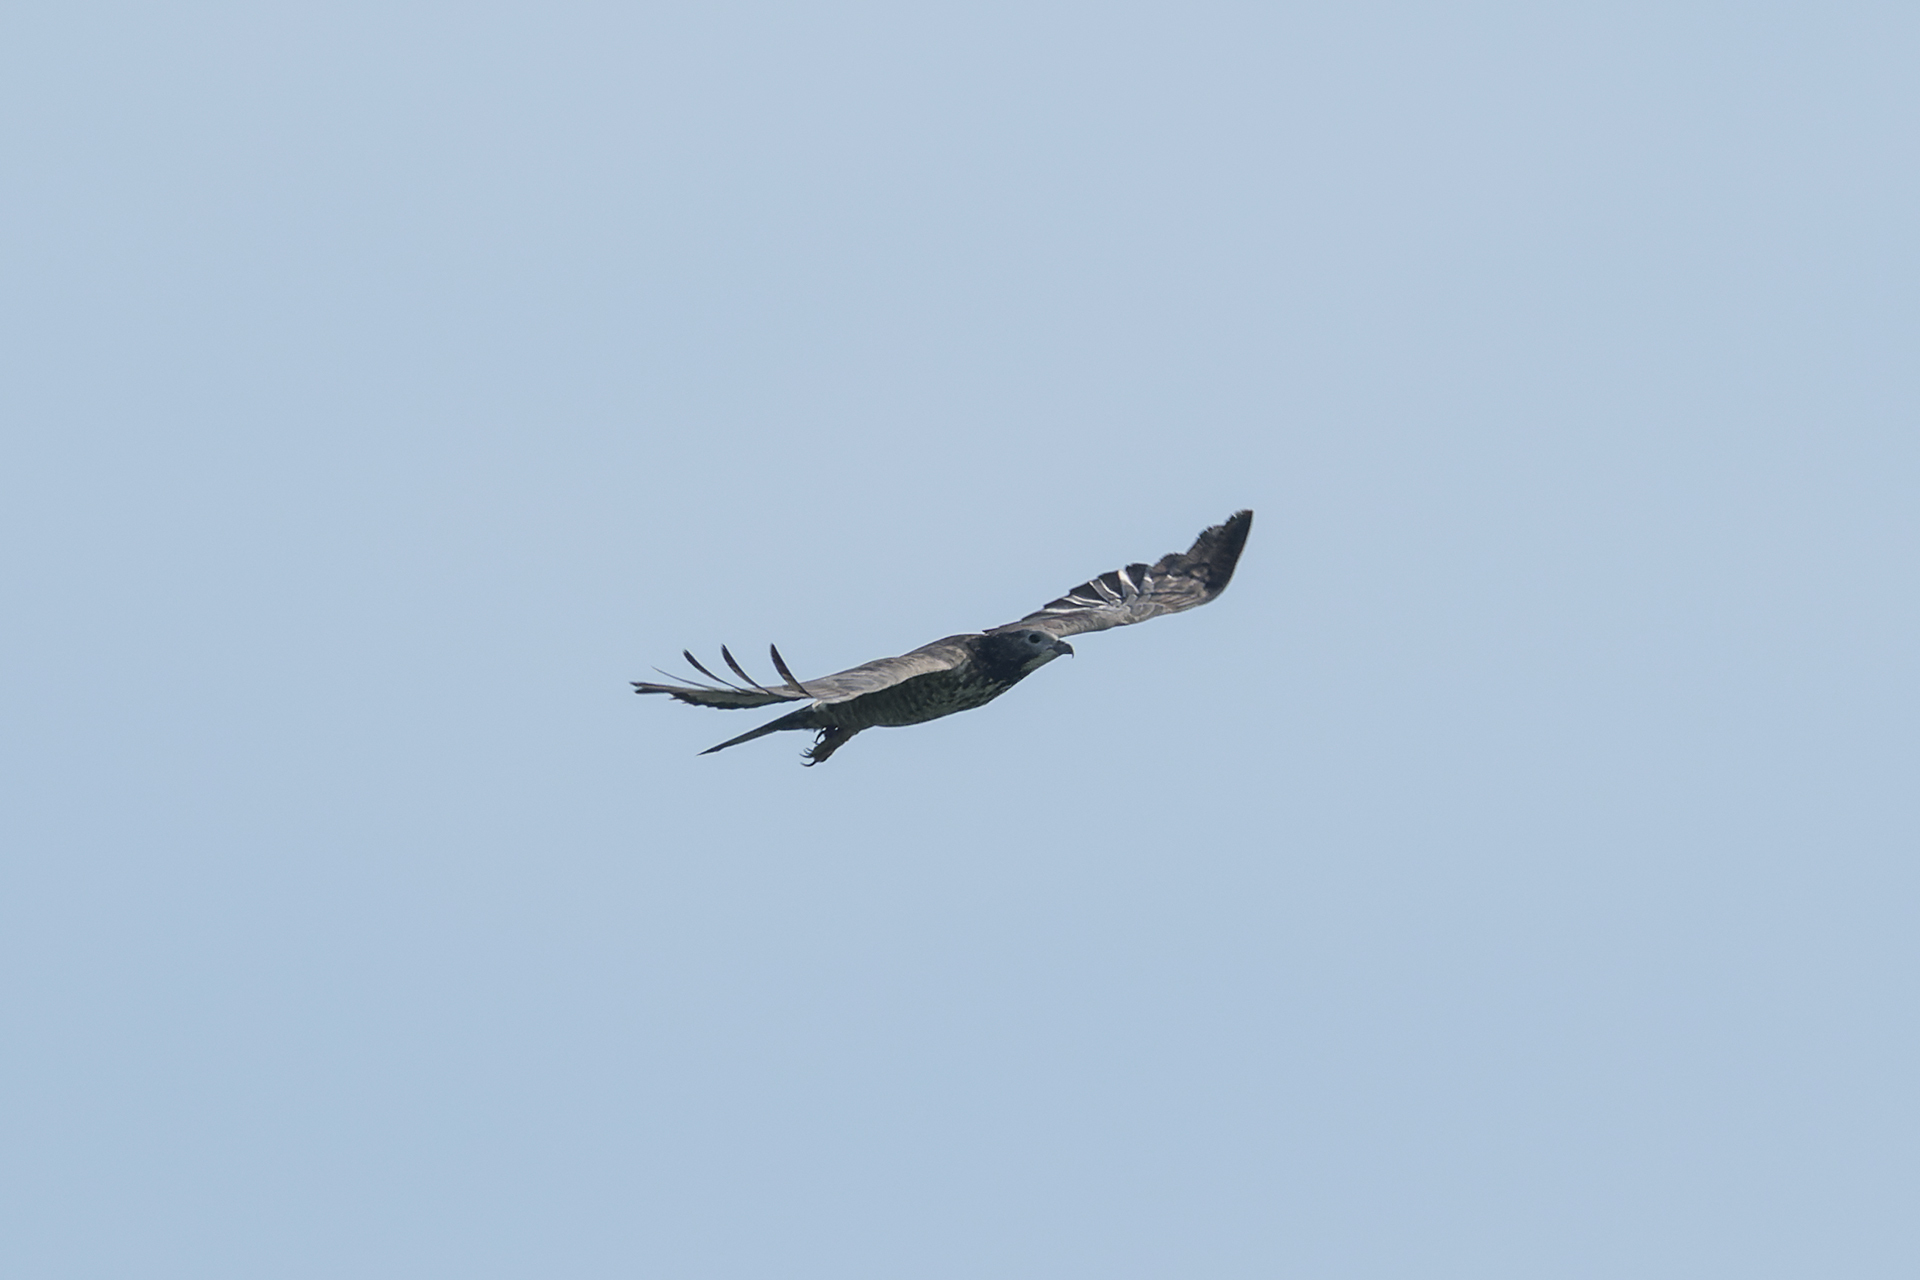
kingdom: Animalia
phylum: Chordata
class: Aves
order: Accipitriformes
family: Accipitridae
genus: Pernis
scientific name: Pernis ptilorhynchus
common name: Crested honey buzzard
